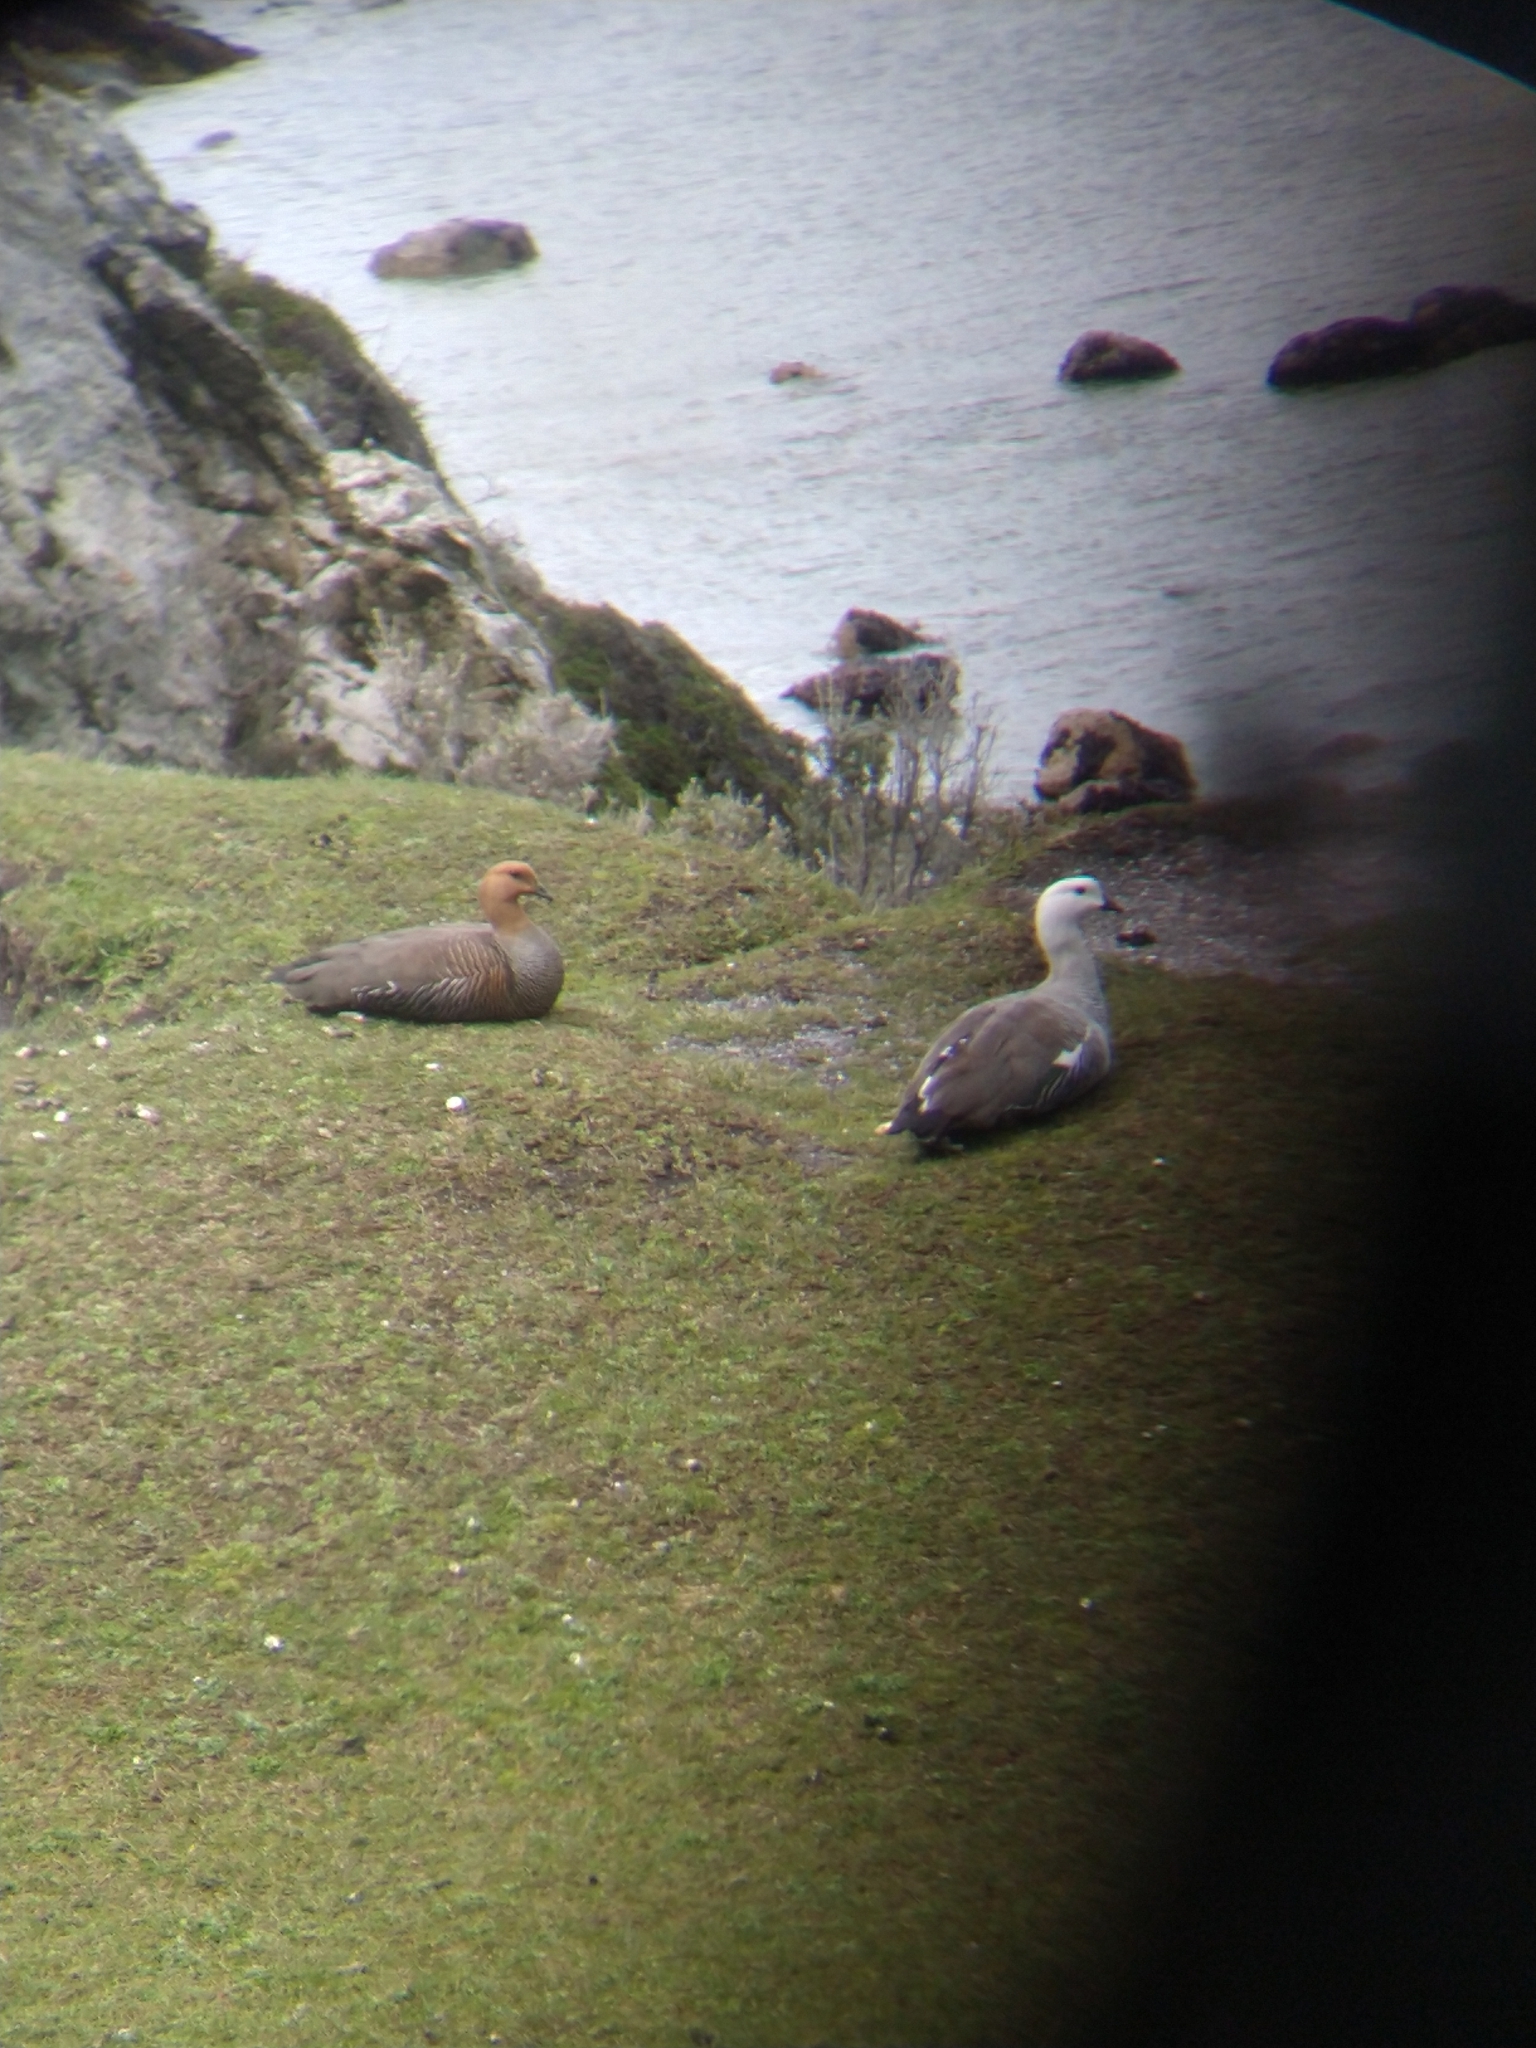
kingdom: Animalia
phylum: Chordata
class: Aves
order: Anseriformes
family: Anatidae
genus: Chloephaga
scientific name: Chloephaga picta
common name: Upland goose
